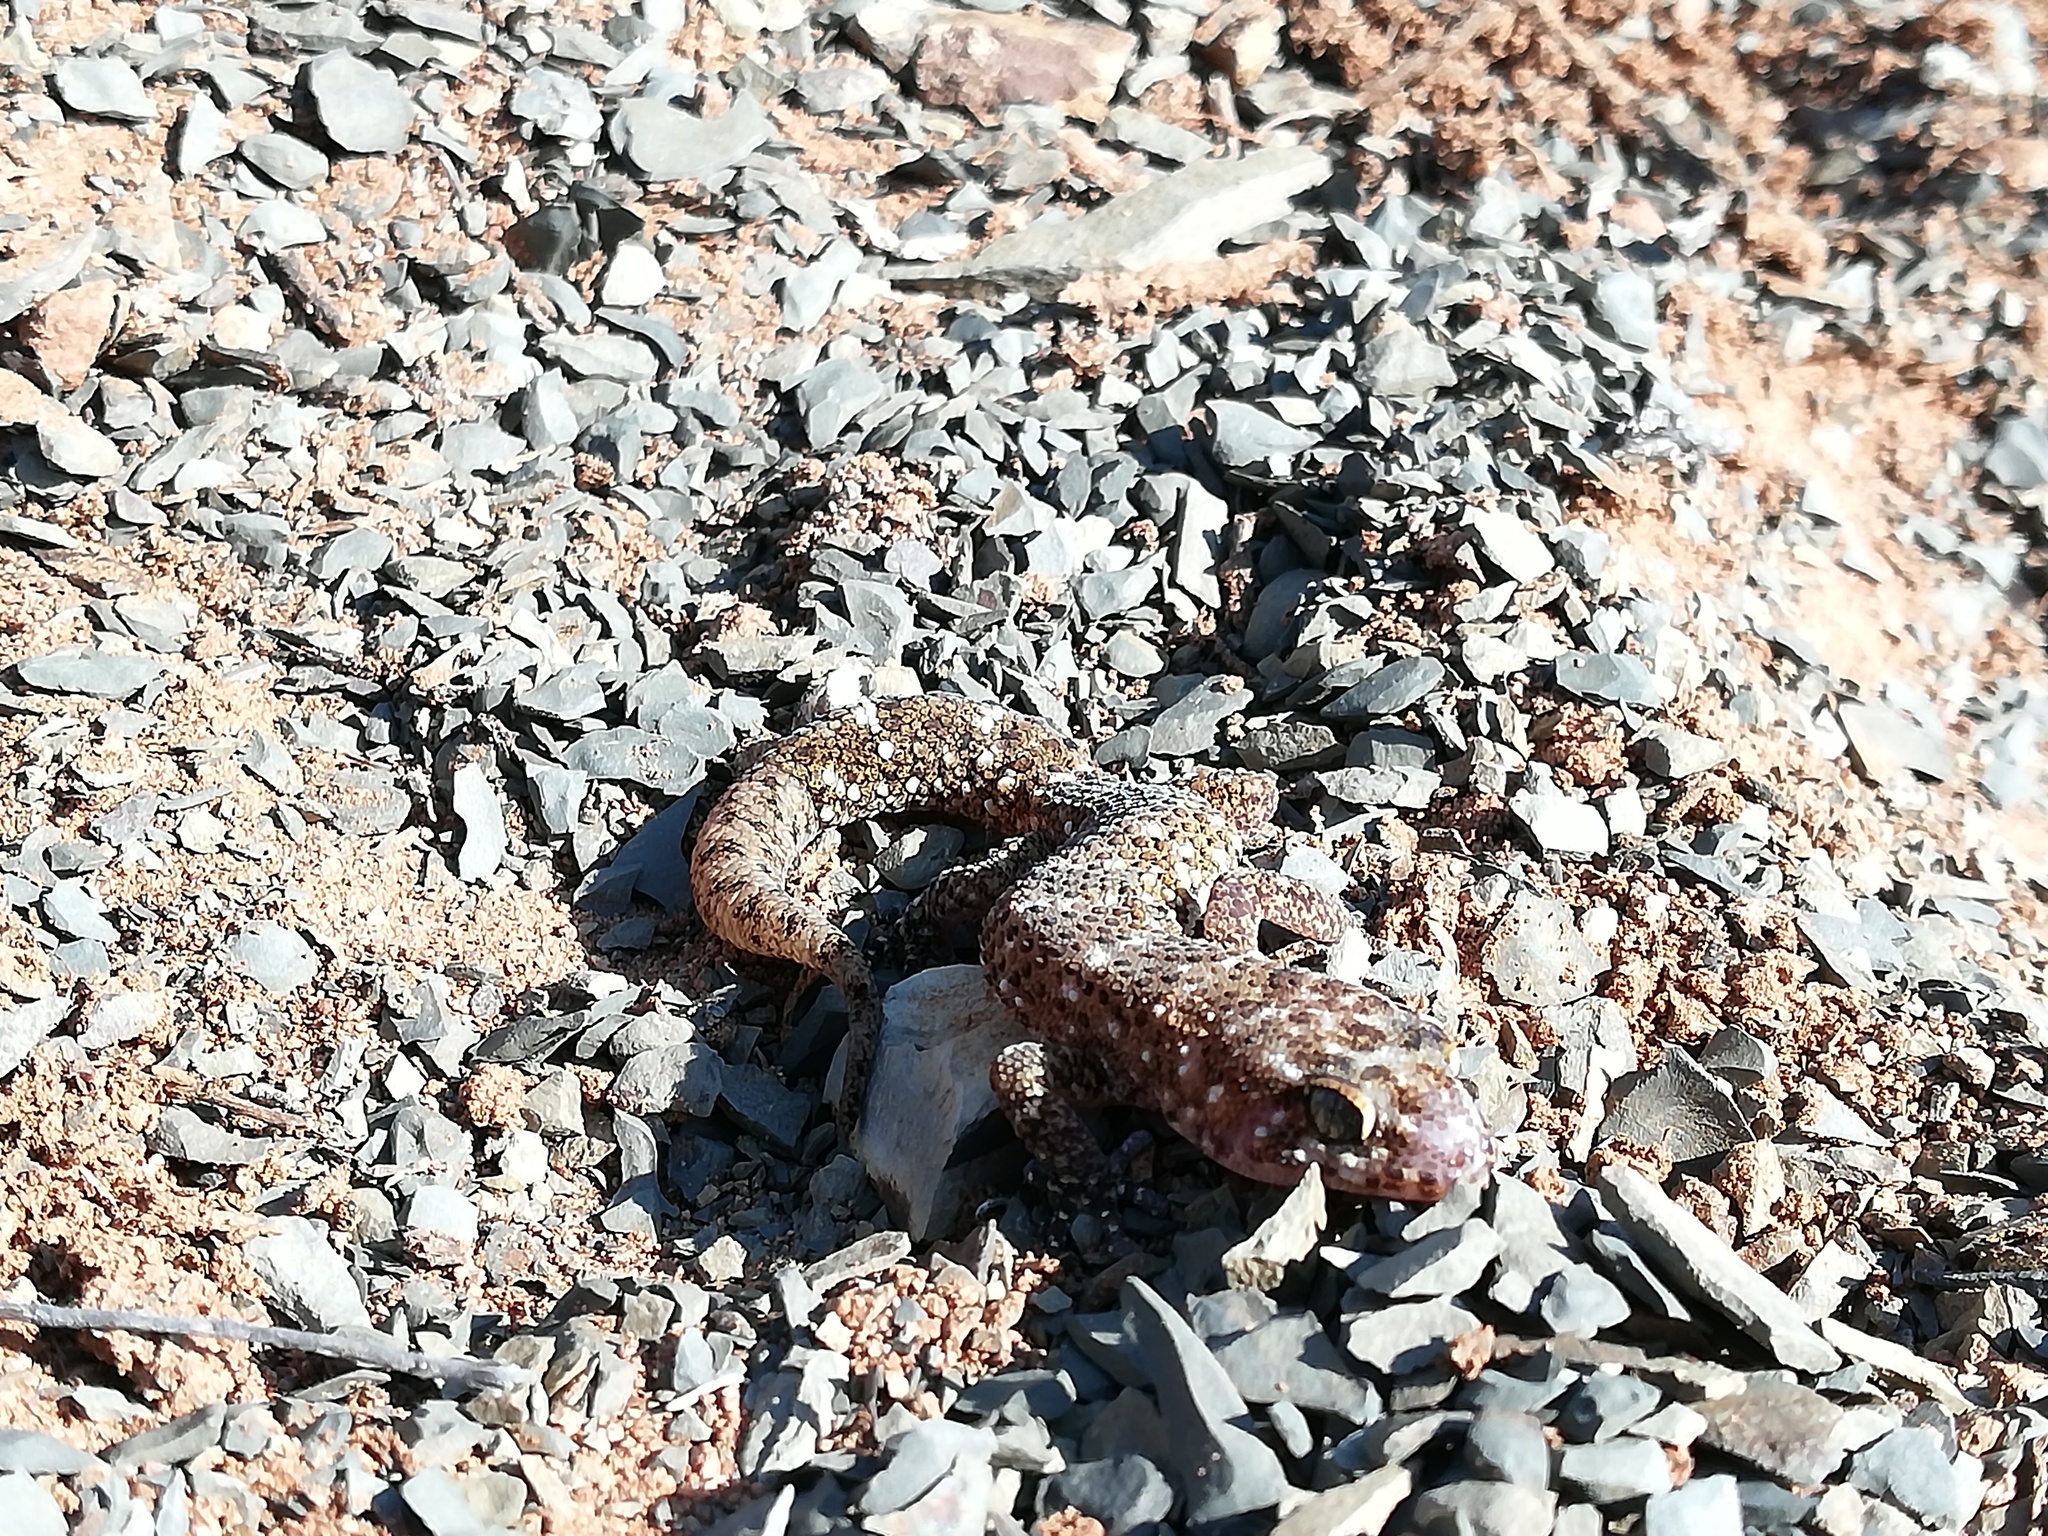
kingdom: Animalia
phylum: Chordata
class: Squamata
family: Gekkonidae
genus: Pachydactylus
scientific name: Pachydactylus capensis
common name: Cape gecko
